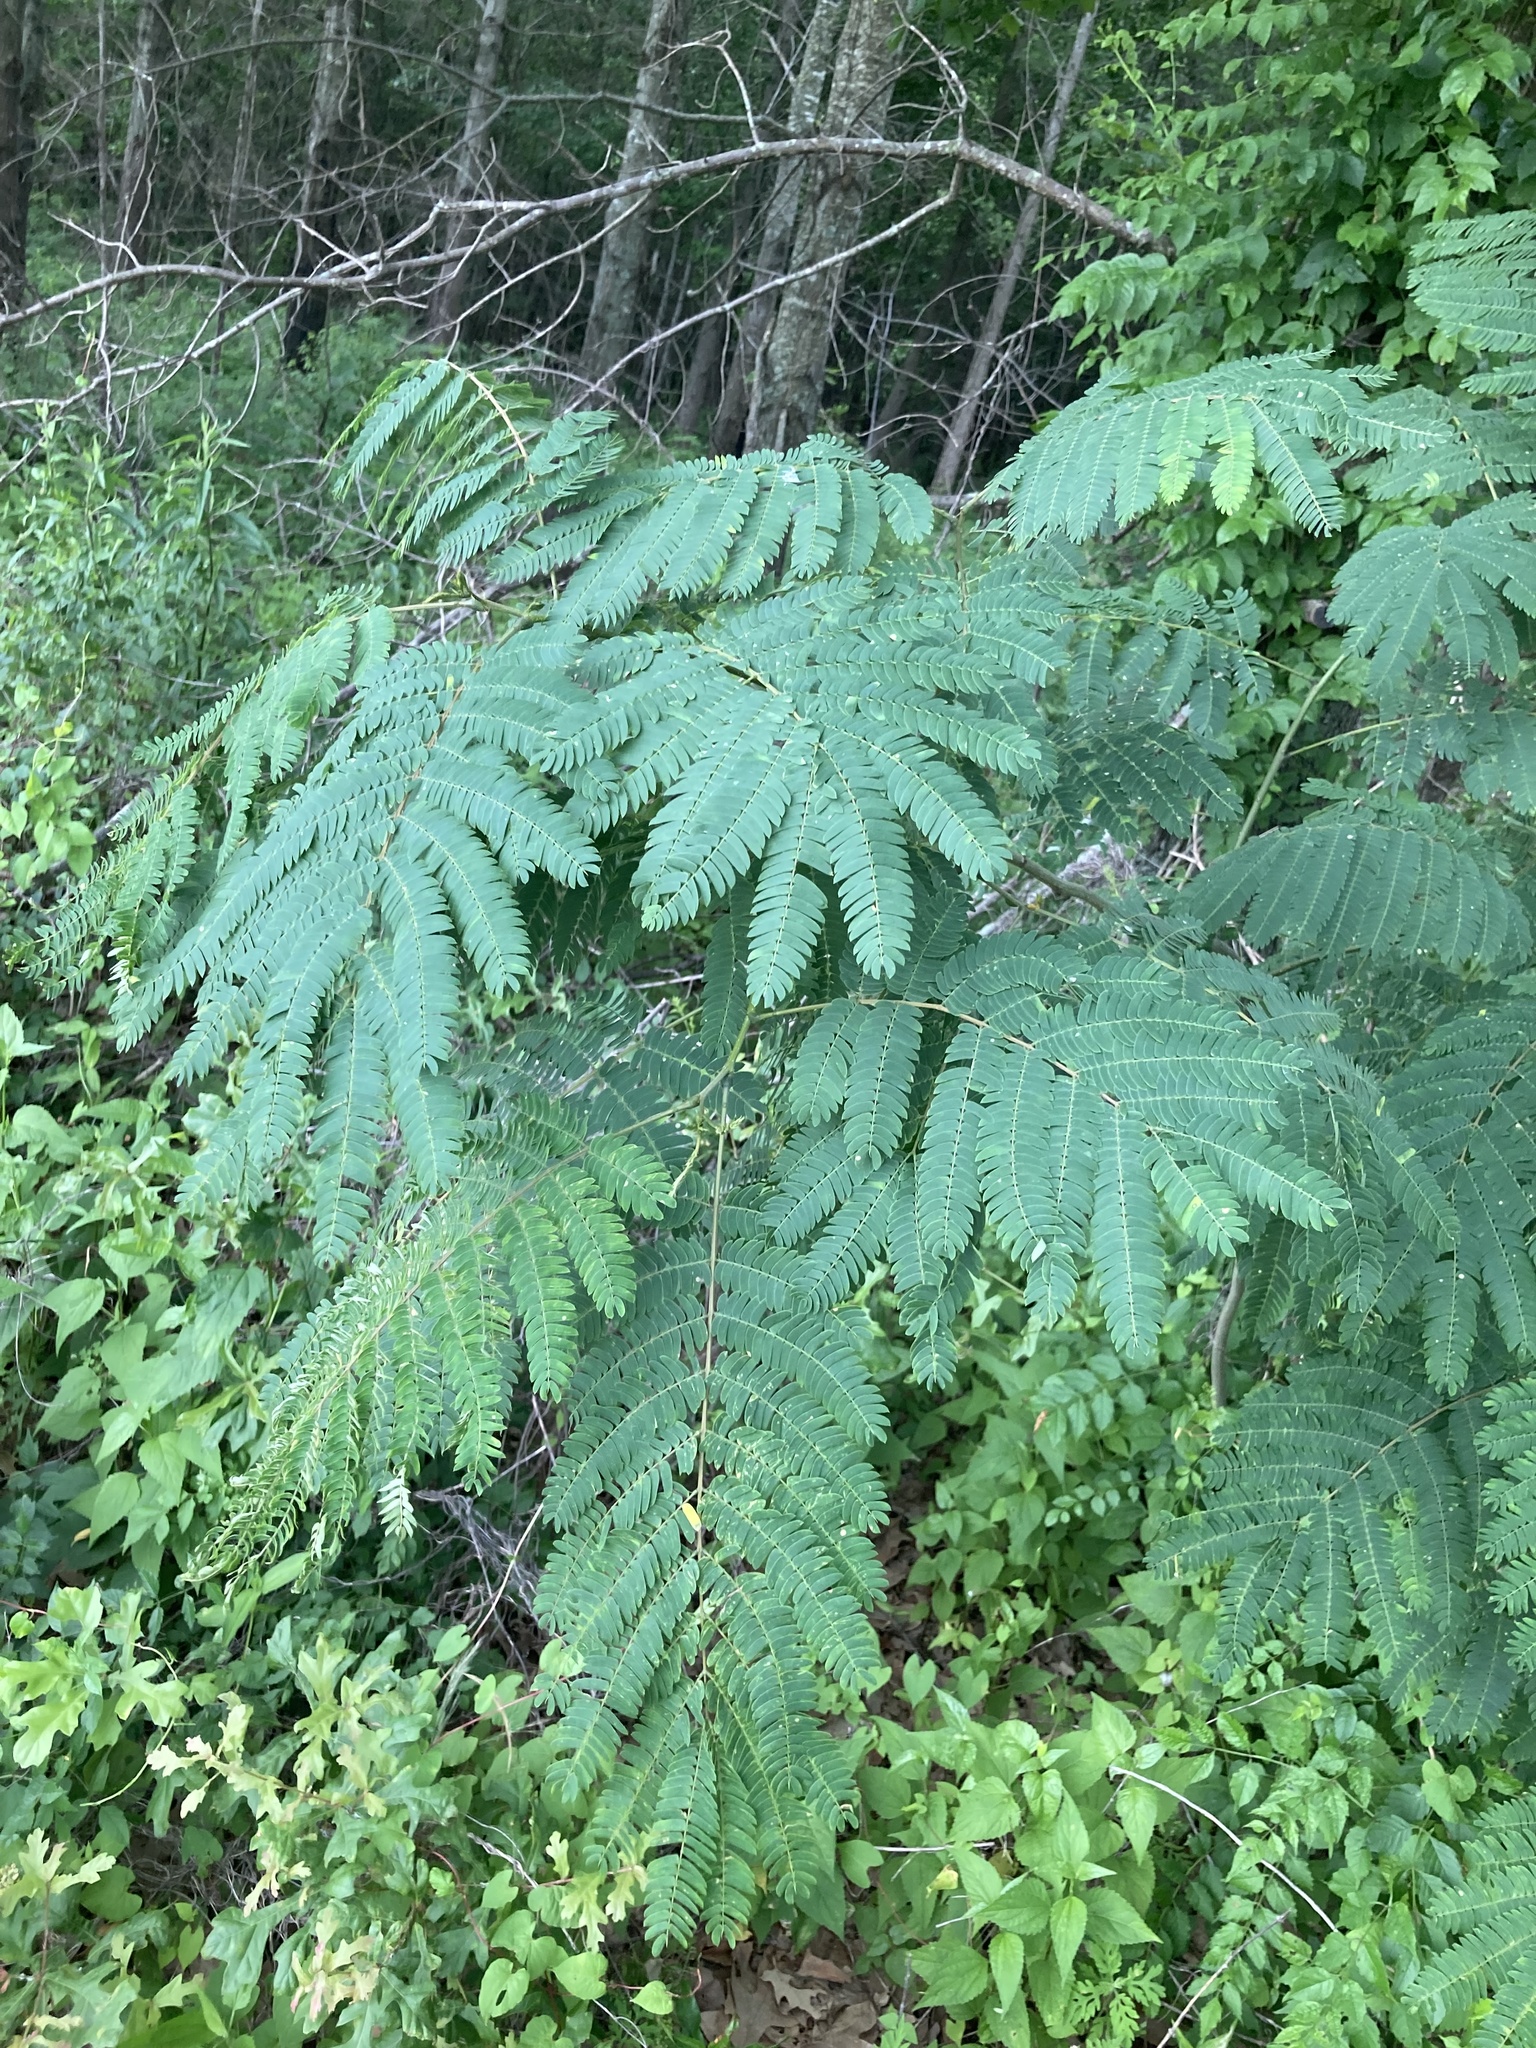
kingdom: Plantae
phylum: Tracheophyta
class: Magnoliopsida
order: Fabales
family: Fabaceae
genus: Albizia
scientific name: Albizia julibrissin
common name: Silktree
